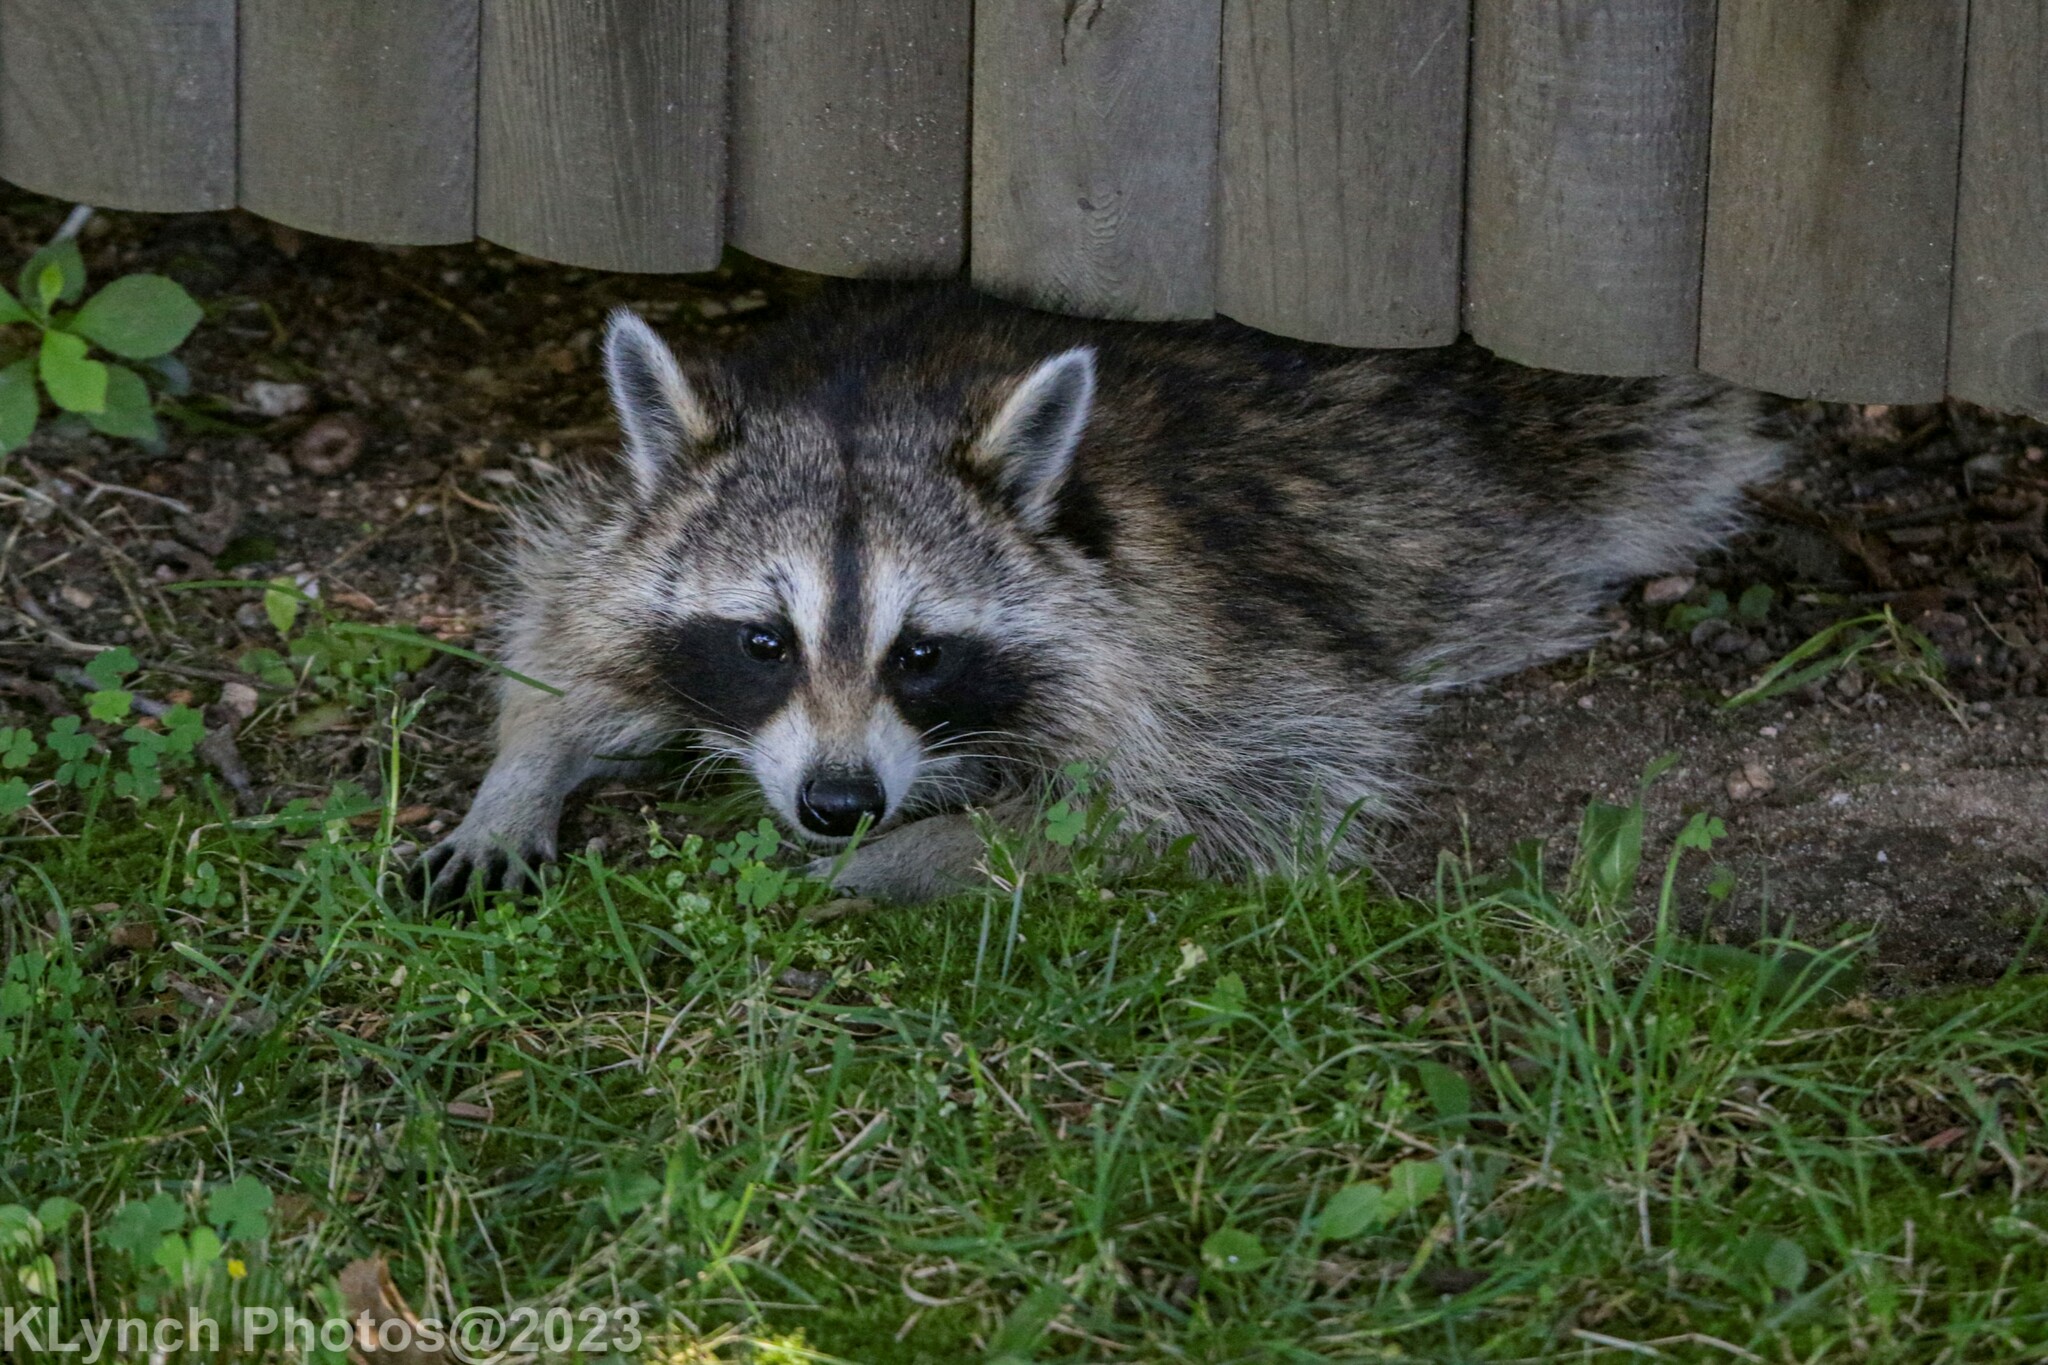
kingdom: Animalia
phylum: Chordata
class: Mammalia
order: Carnivora
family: Procyonidae
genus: Procyon
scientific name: Procyon lotor
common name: Raccoon
